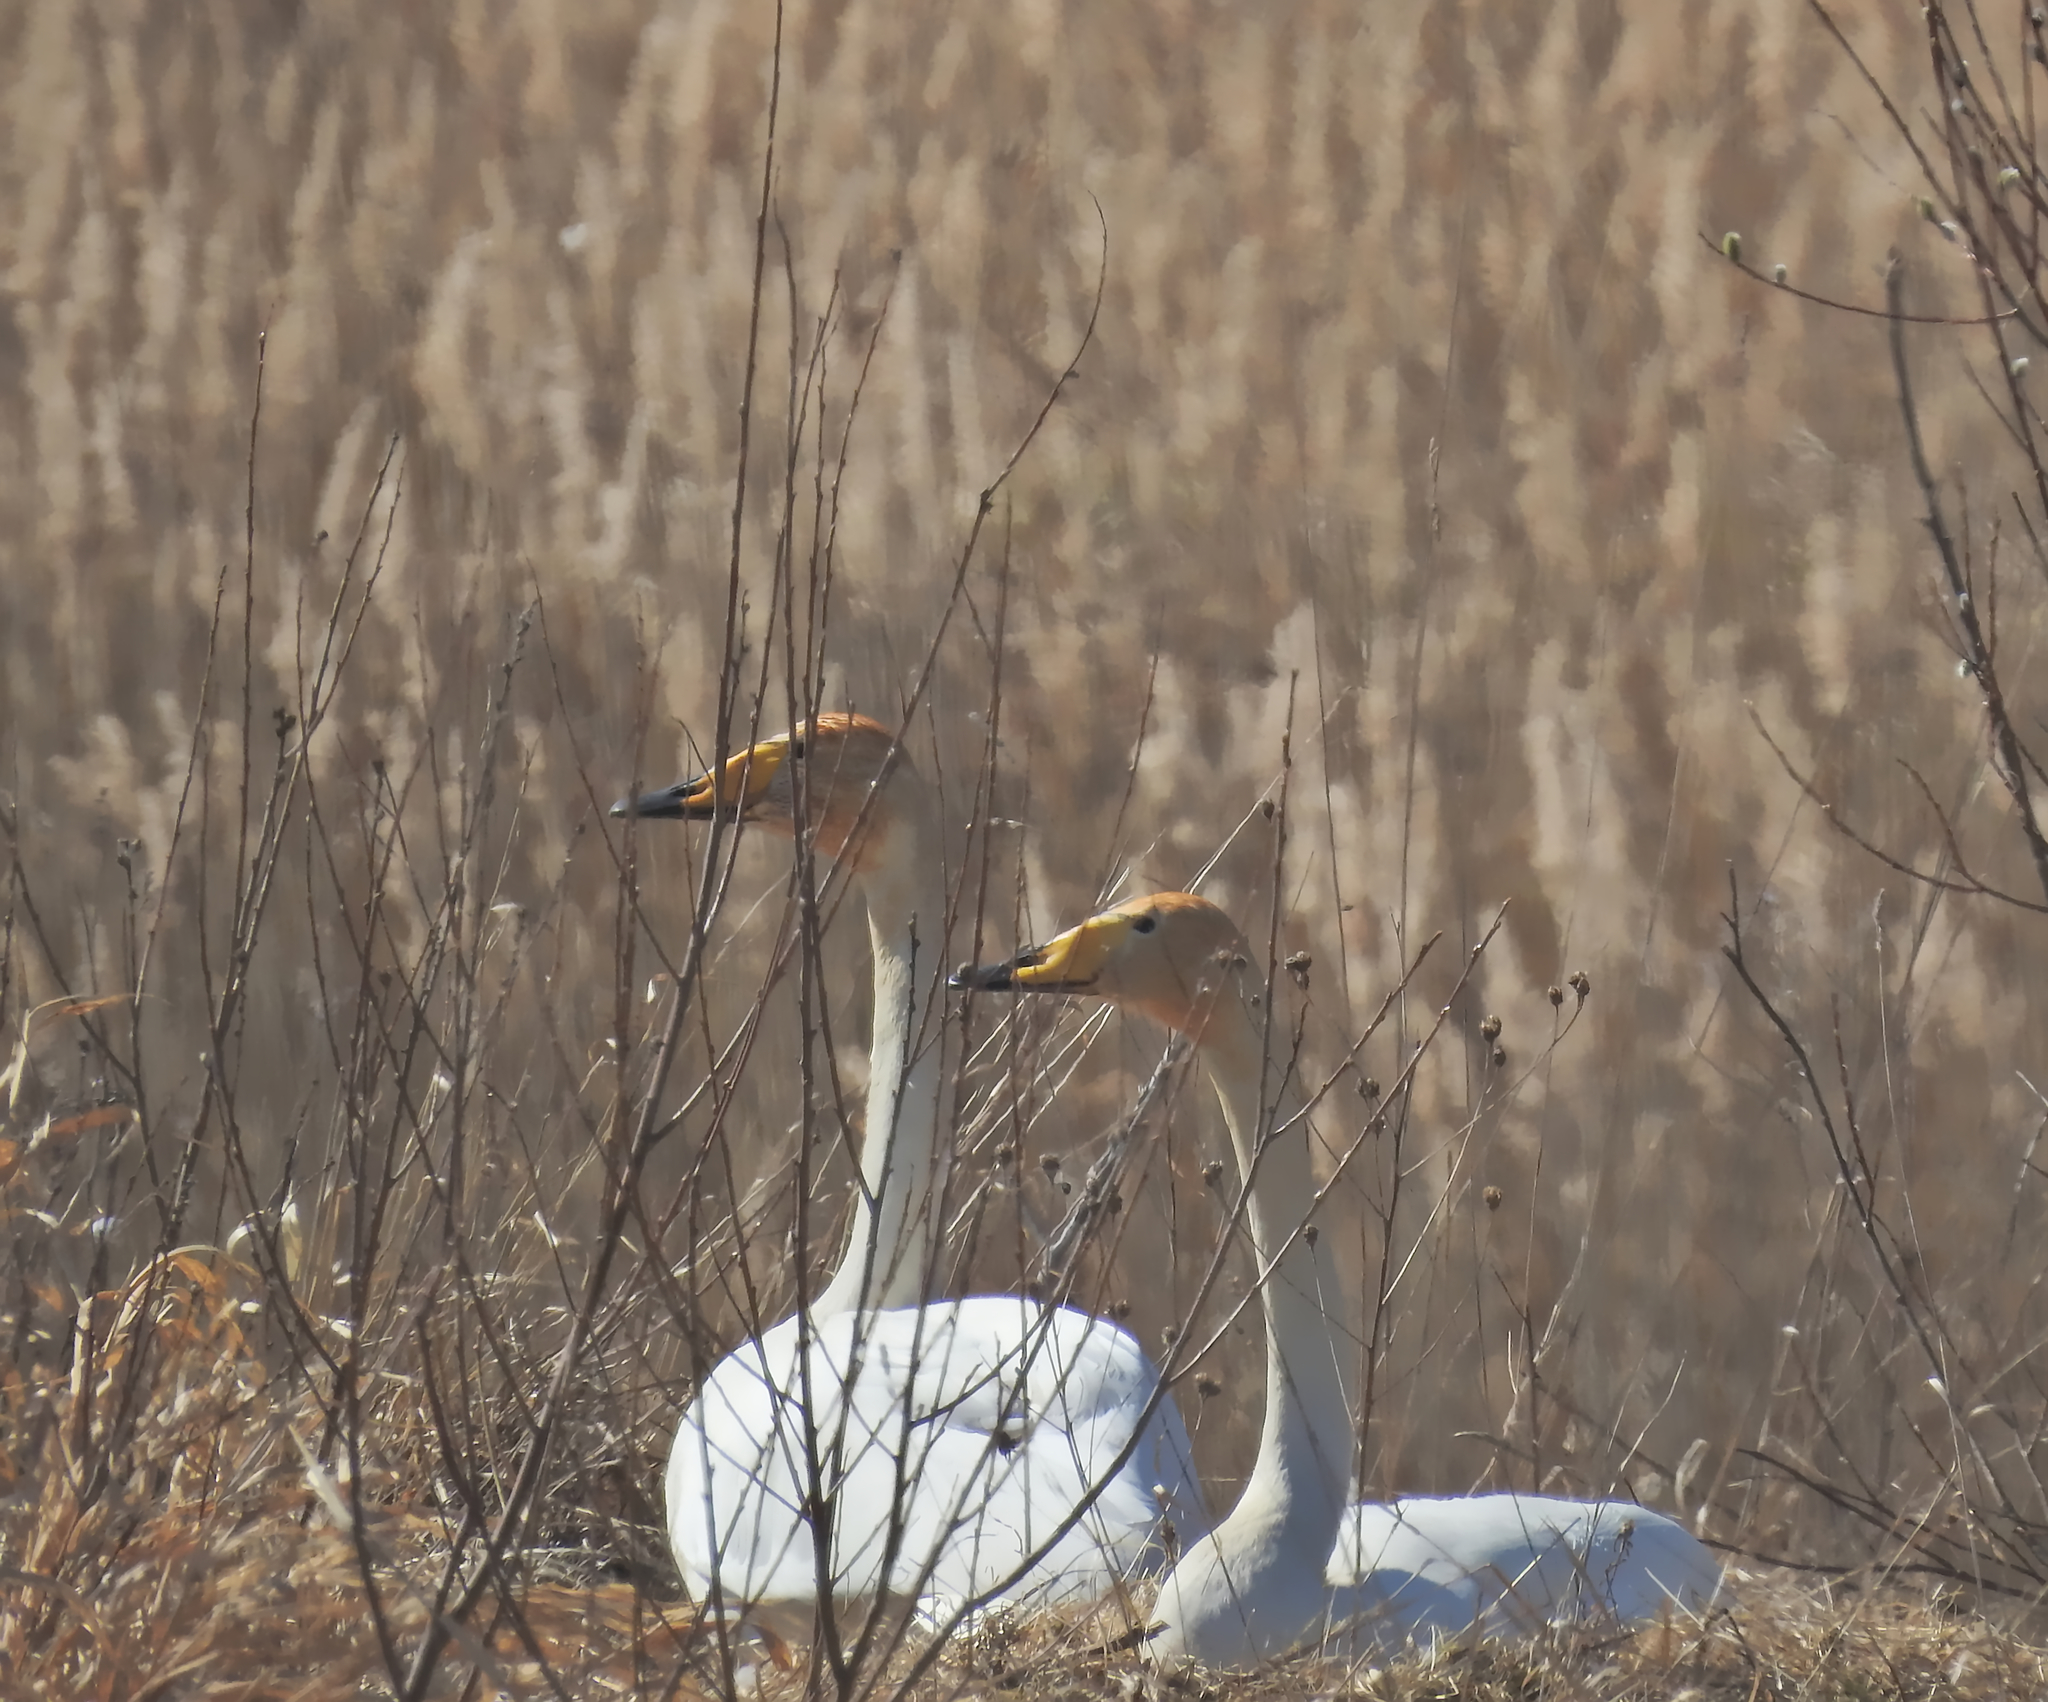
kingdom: Animalia
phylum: Chordata
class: Aves
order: Anseriformes
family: Anatidae
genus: Cygnus
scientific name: Cygnus cygnus
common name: Whooper swan
